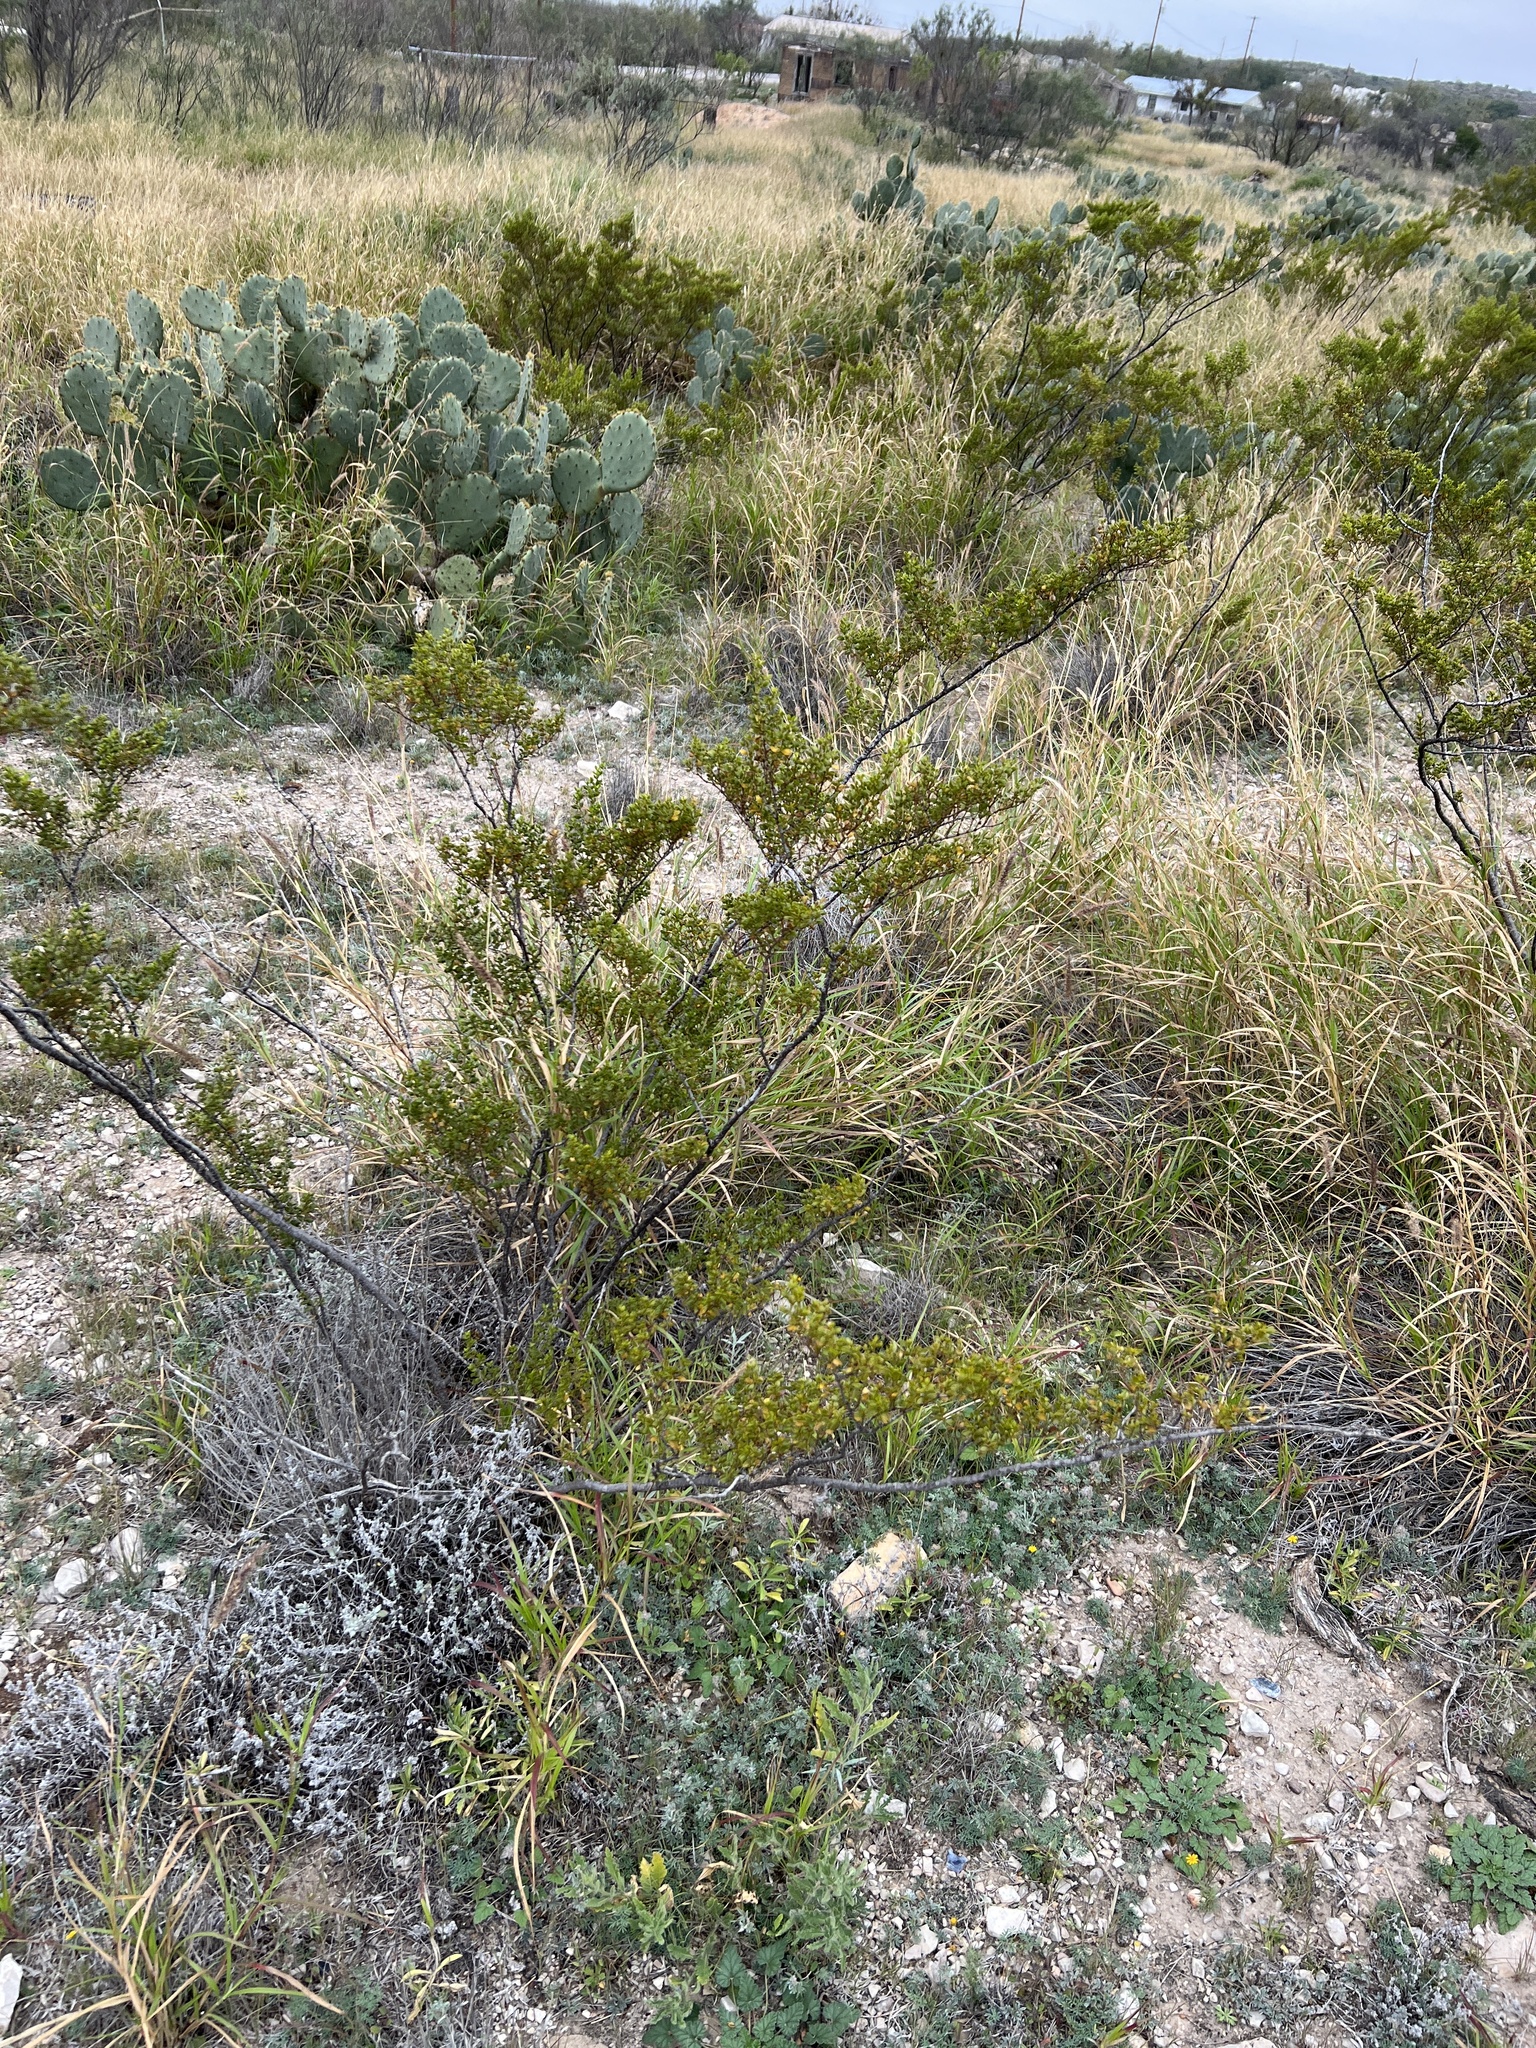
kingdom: Plantae
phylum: Tracheophyta
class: Magnoliopsida
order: Zygophyllales
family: Zygophyllaceae
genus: Larrea
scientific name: Larrea tridentata
